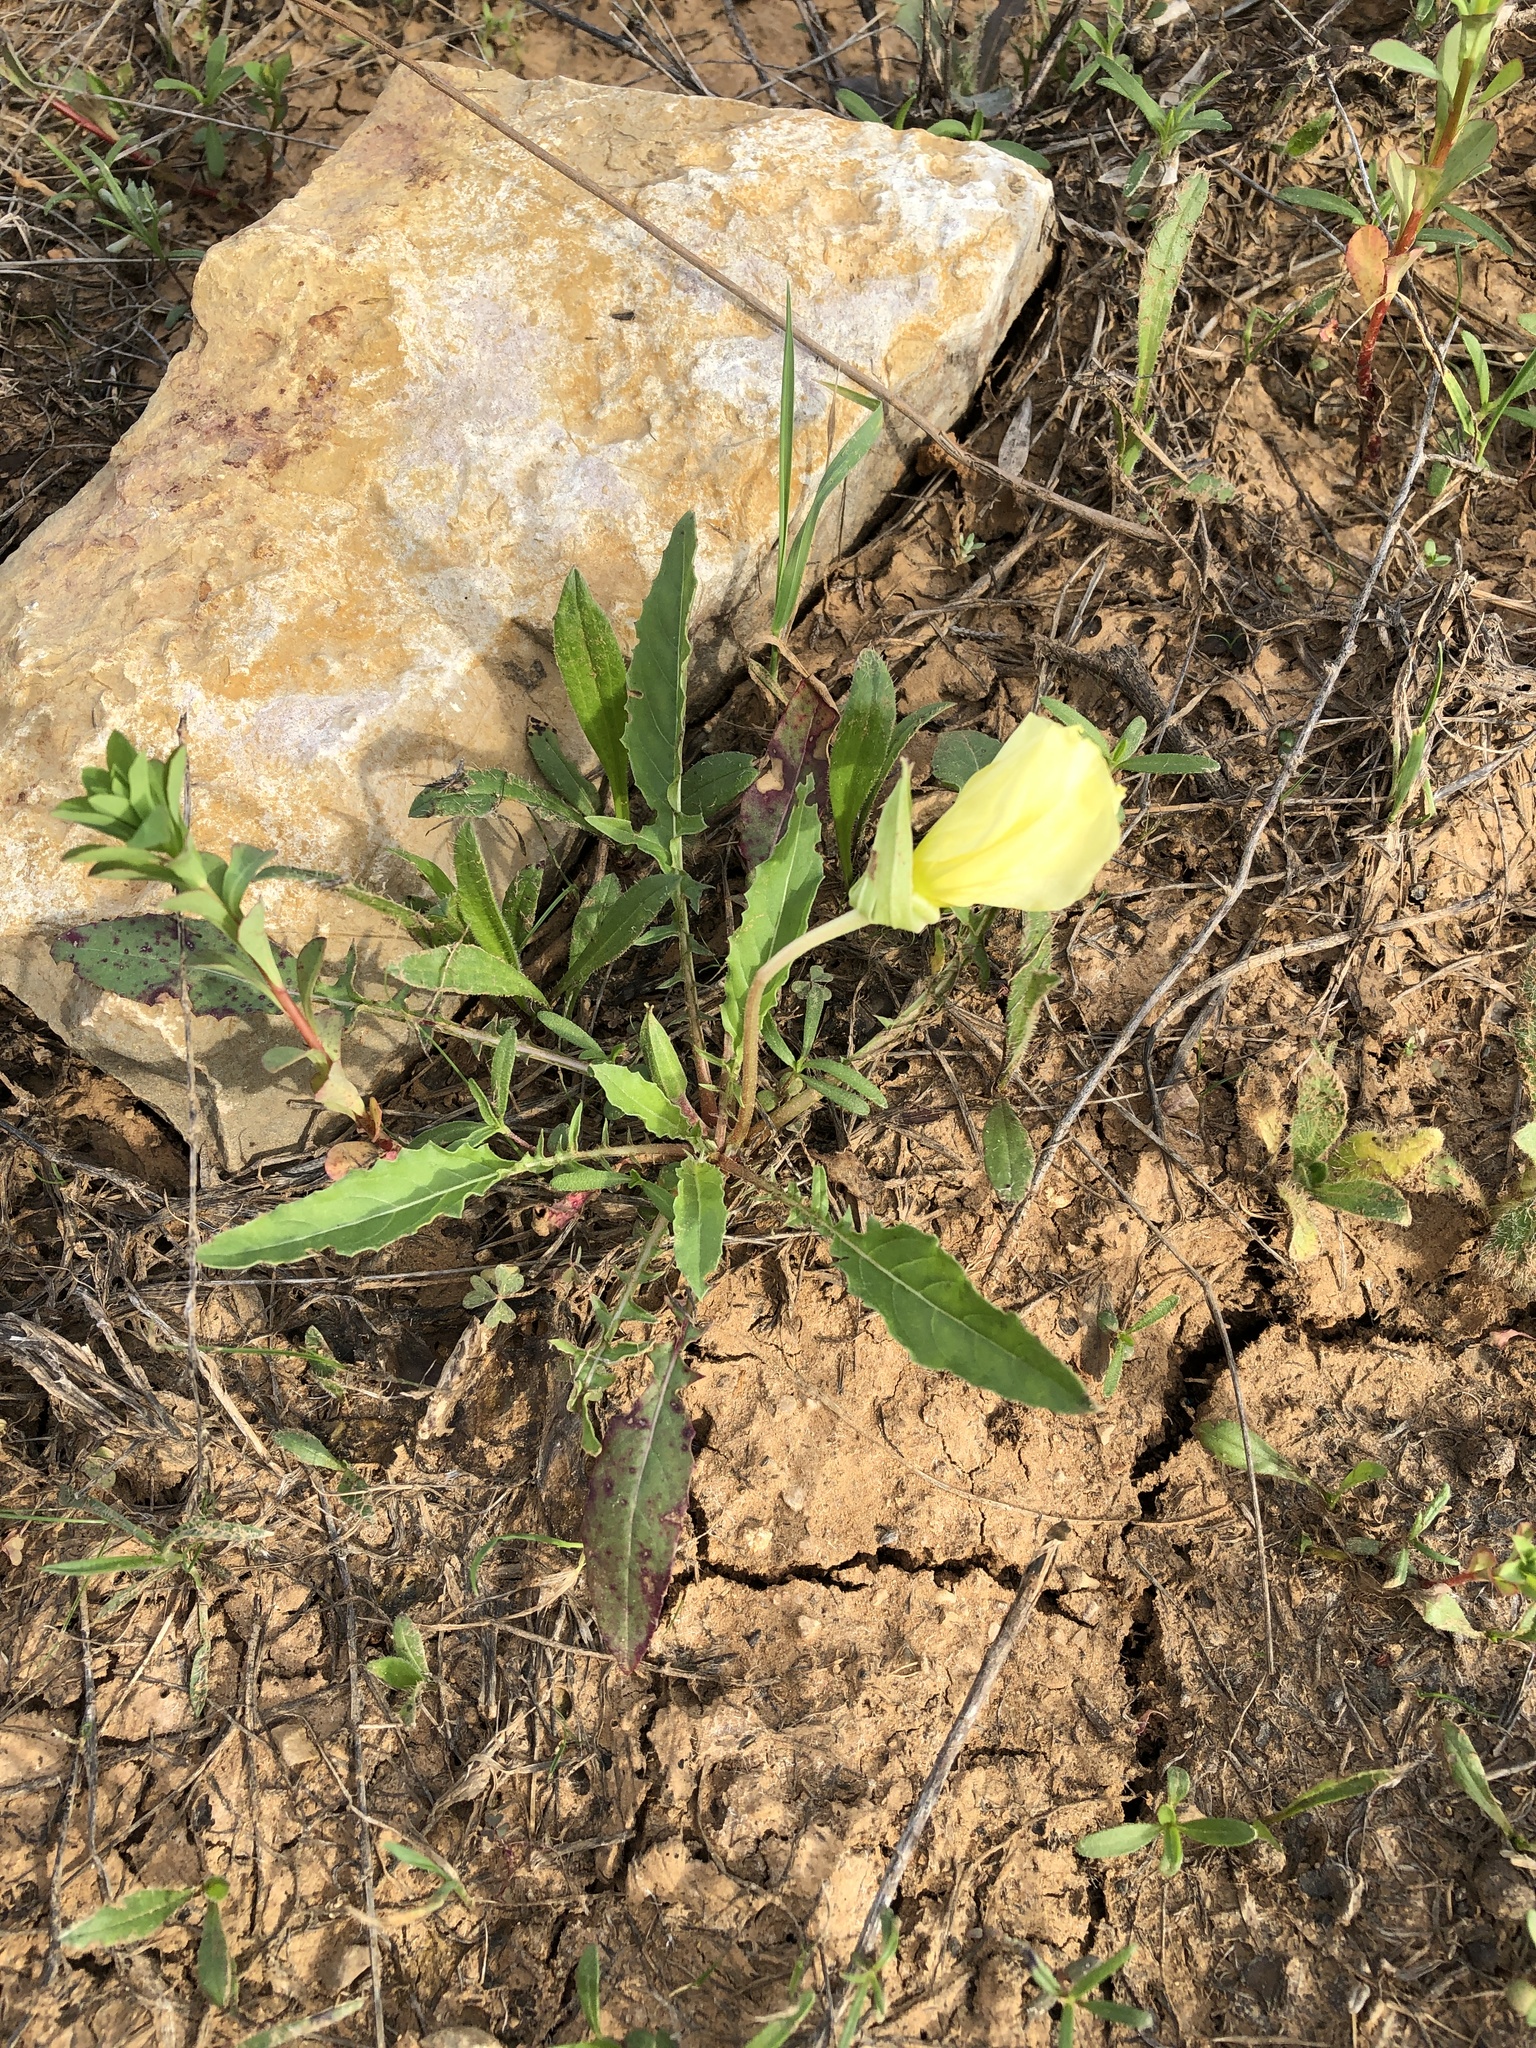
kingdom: Plantae
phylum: Tracheophyta
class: Magnoliopsida
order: Myrtales
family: Onagraceae
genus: Oenothera
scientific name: Oenothera triloba
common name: Sessile evening-primrose
